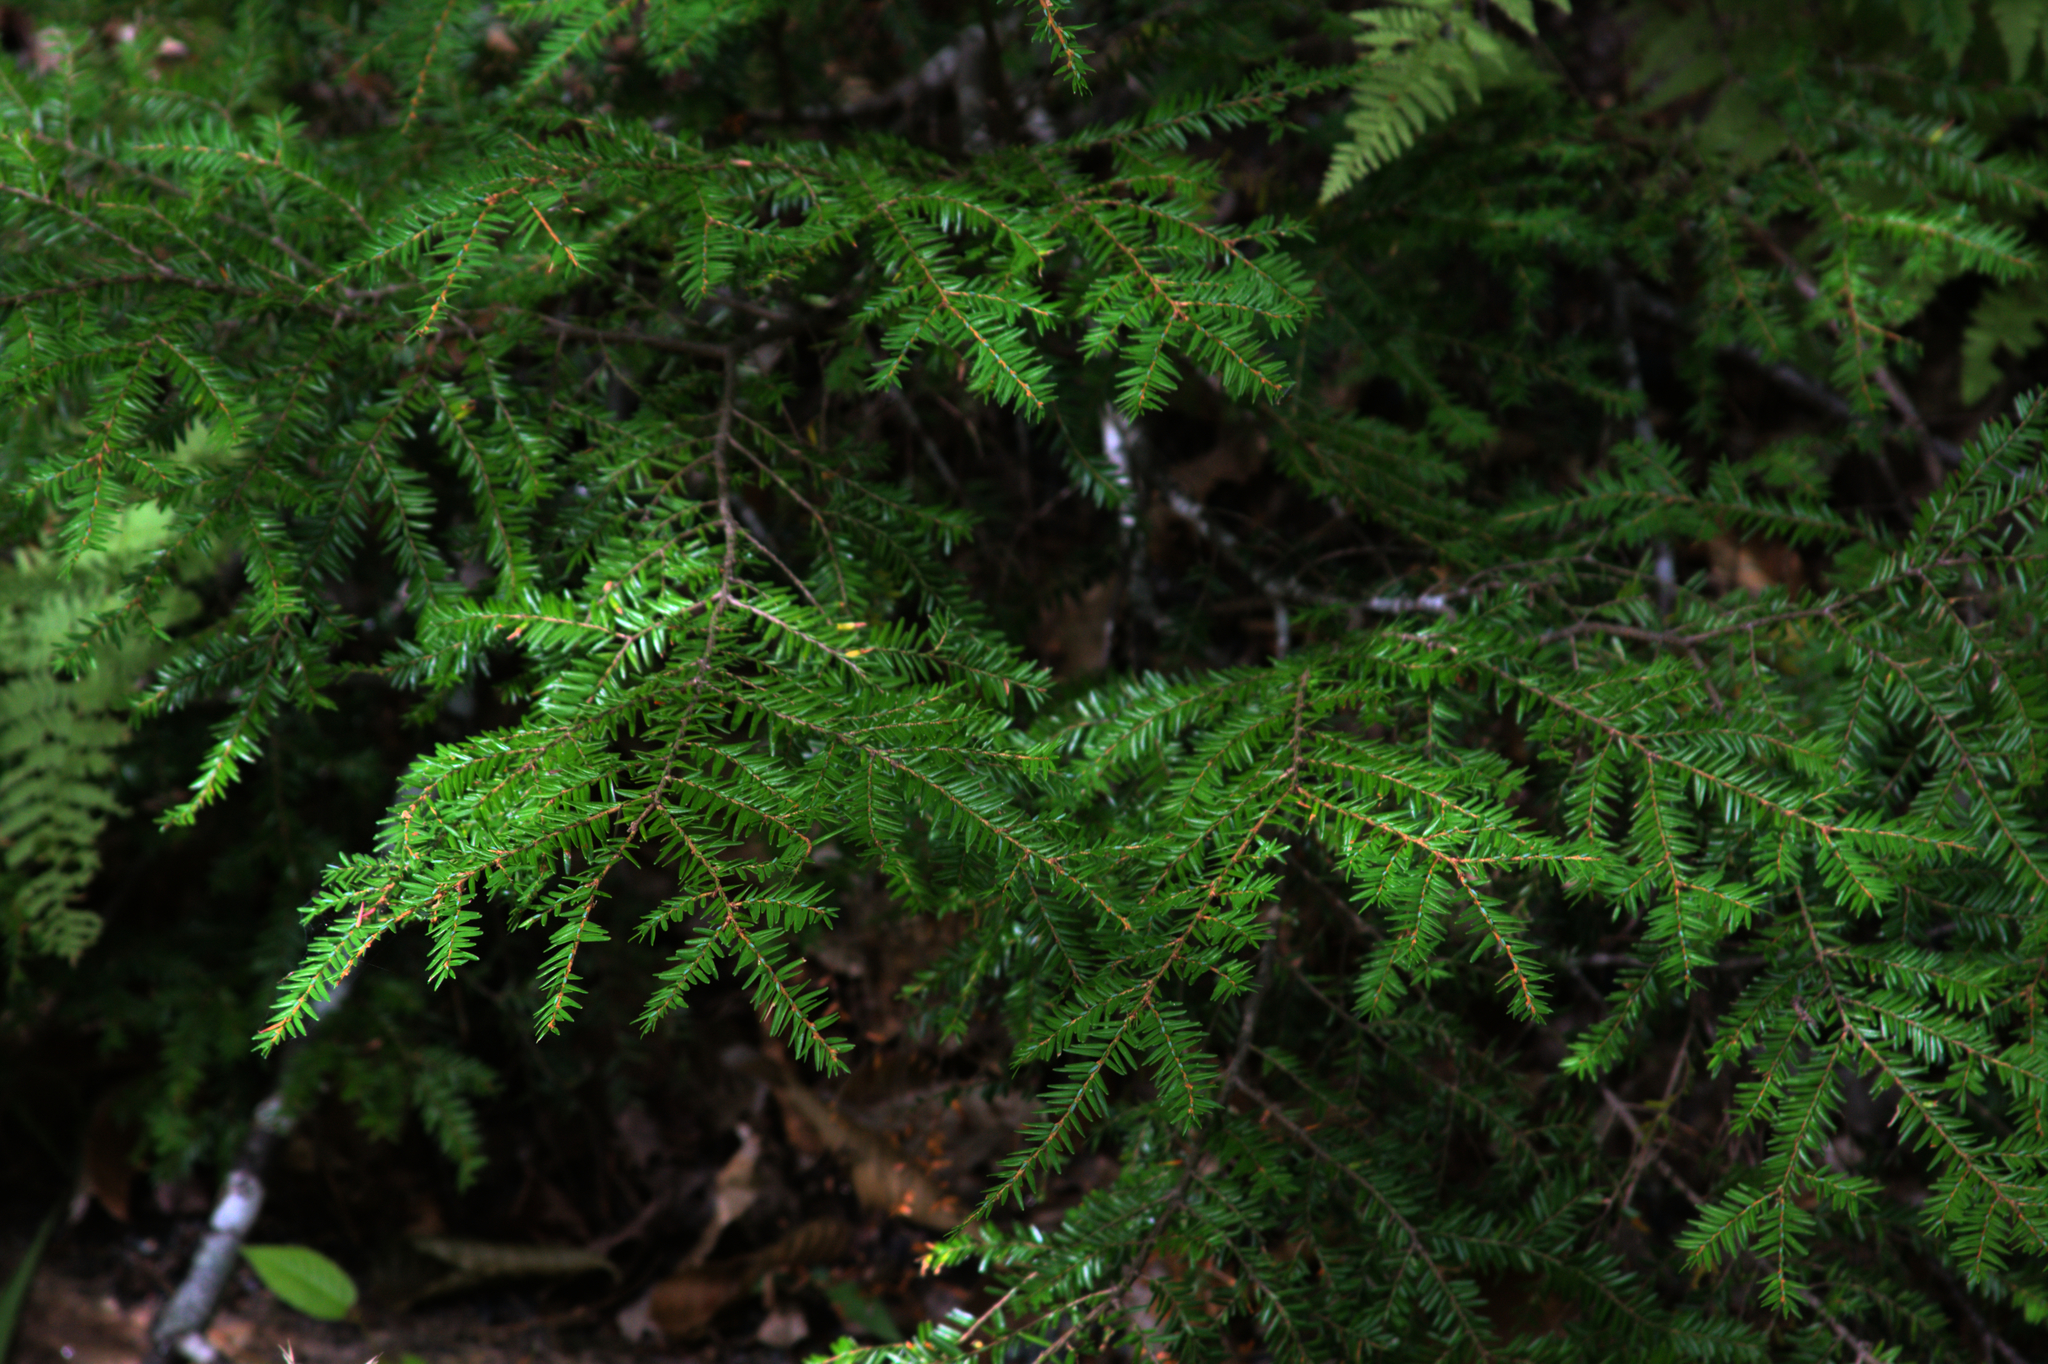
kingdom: Plantae
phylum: Tracheophyta
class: Pinopsida
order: Pinales
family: Pinaceae
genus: Tsuga
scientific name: Tsuga canadensis
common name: Eastern hemlock
